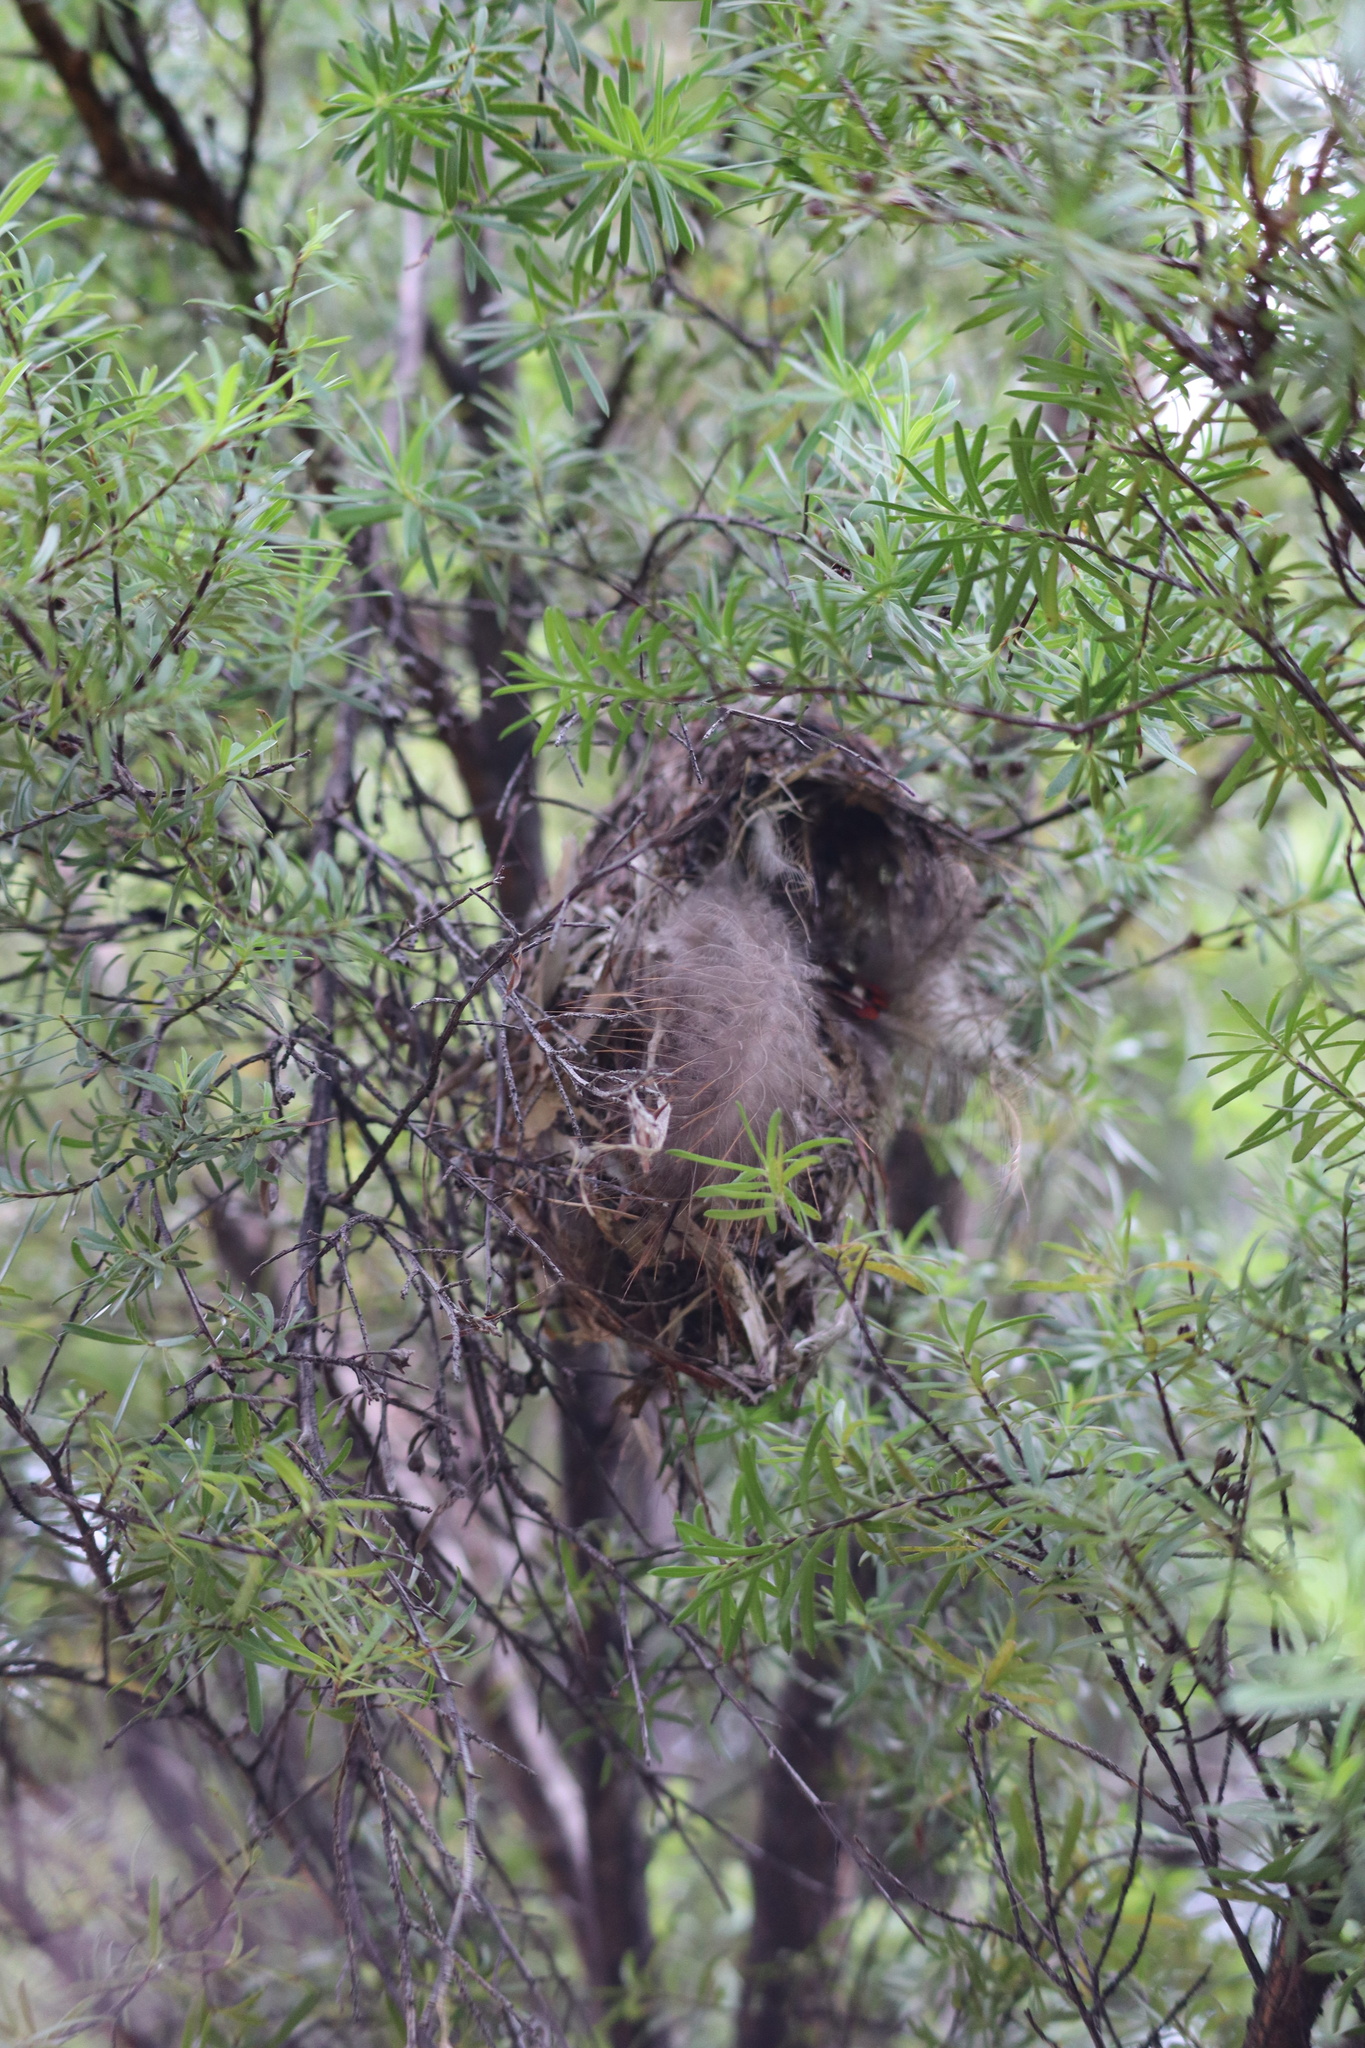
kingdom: Animalia
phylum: Chordata
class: Aves
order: Passeriformes
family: Acanthizidae
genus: Gerygone
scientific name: Gerygone igata
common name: Grey gerygone
